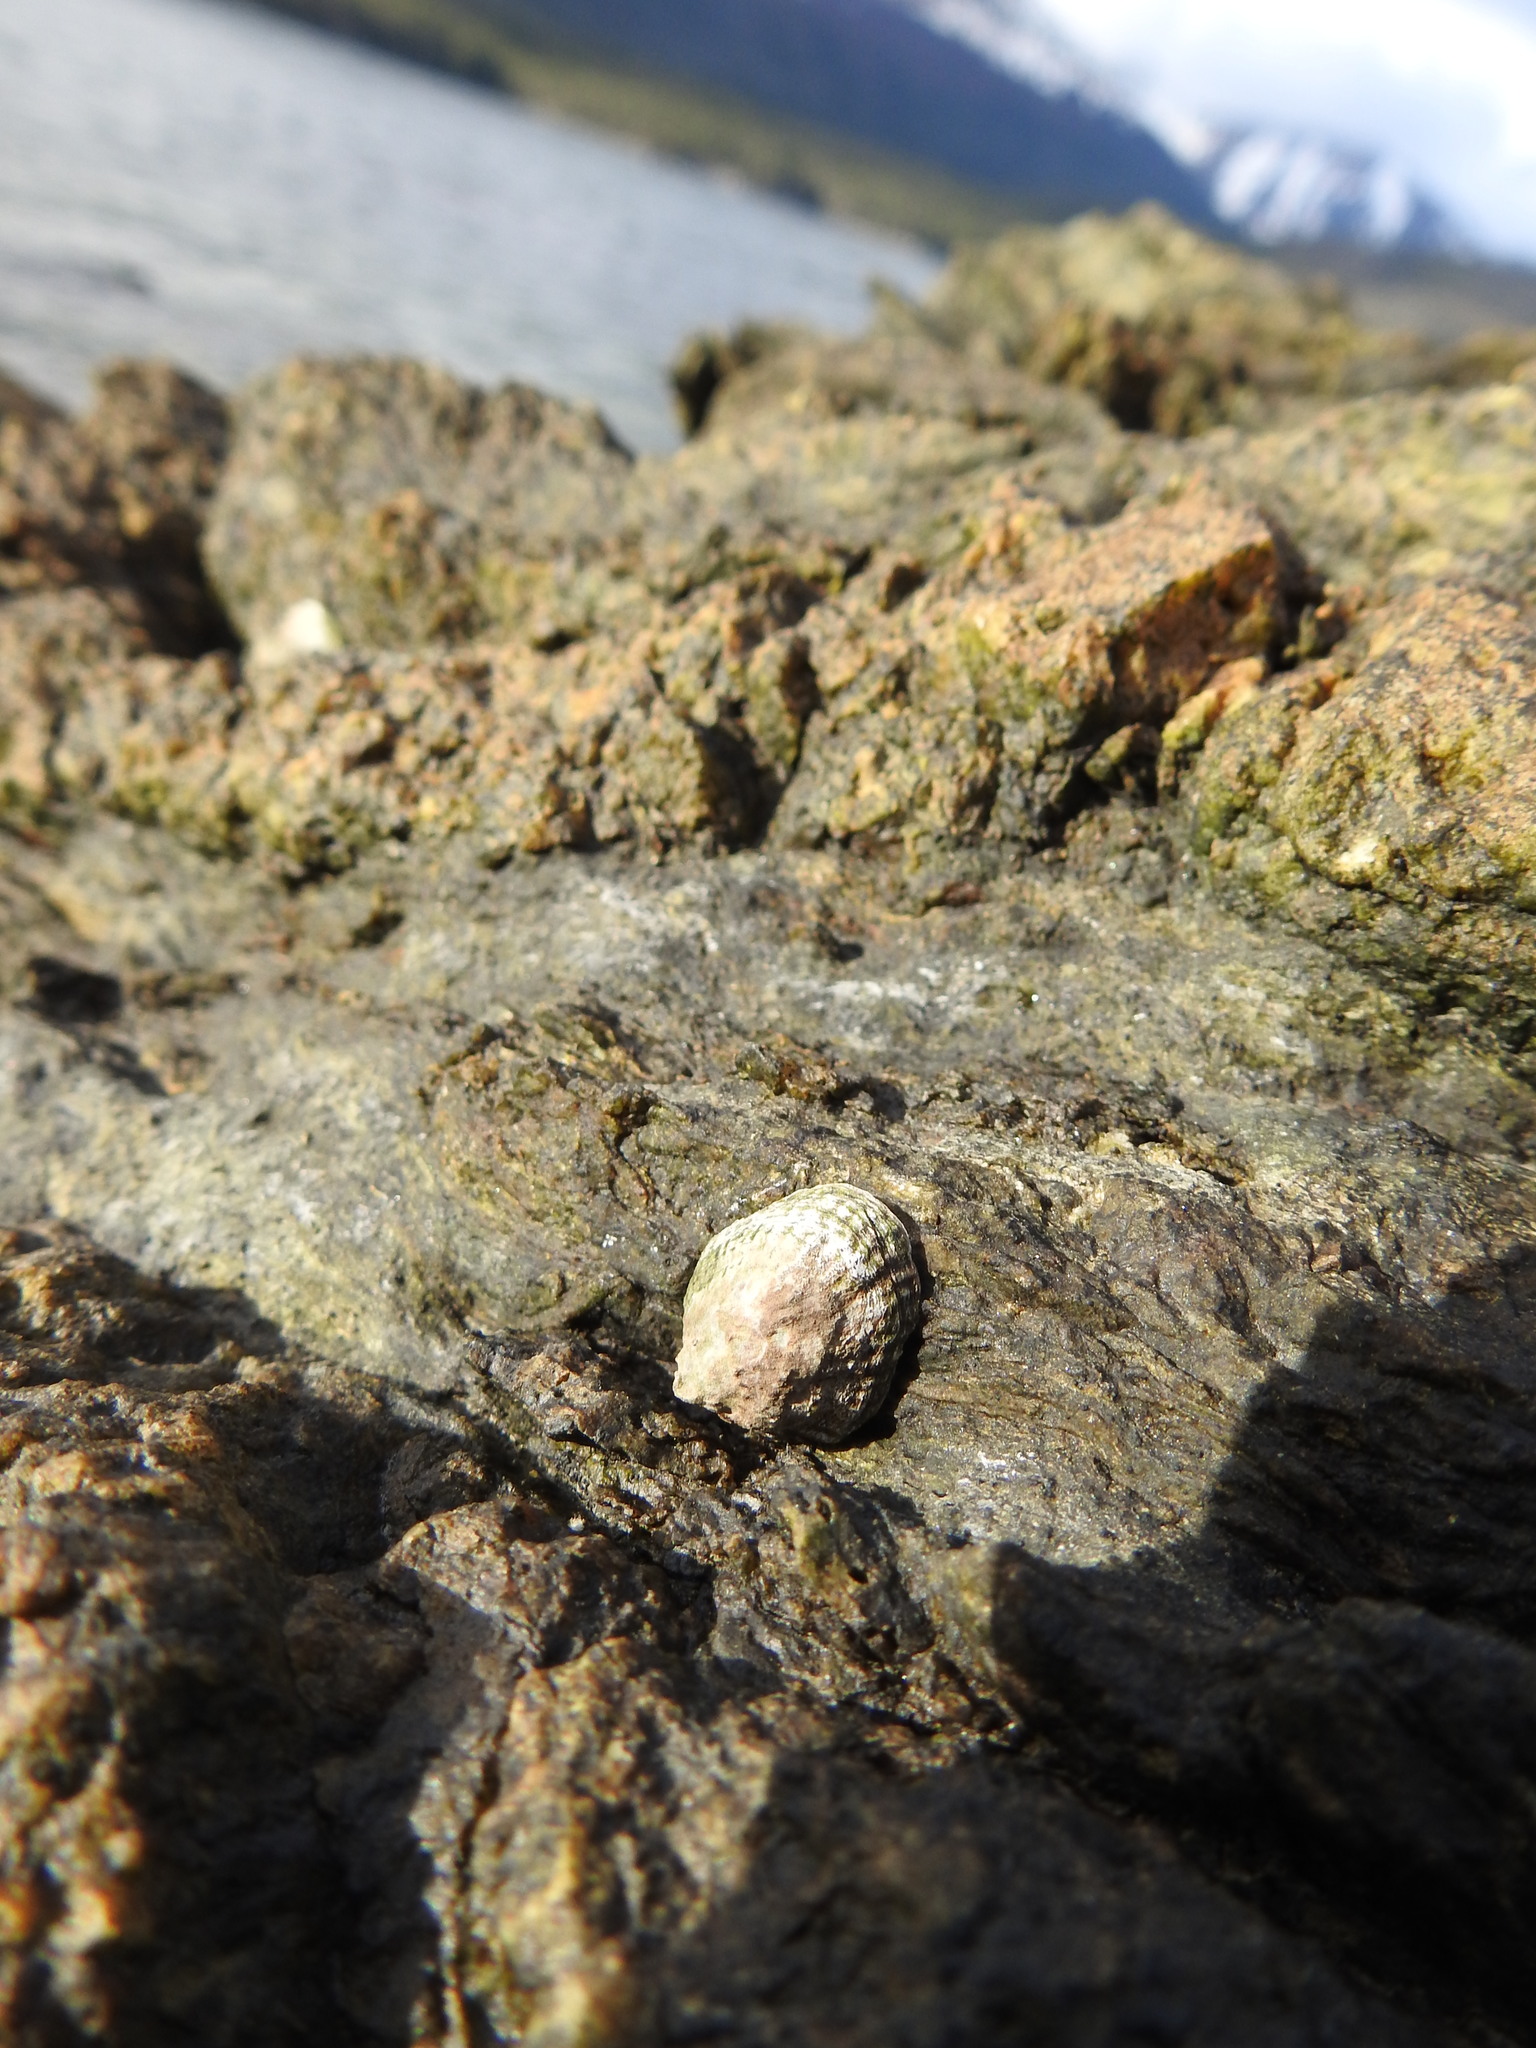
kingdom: Animalia
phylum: Mollusca
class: Gastropoda
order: Siphonariida
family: Siphonariidae
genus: Siphonaria
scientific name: Siphonaria lessonii
